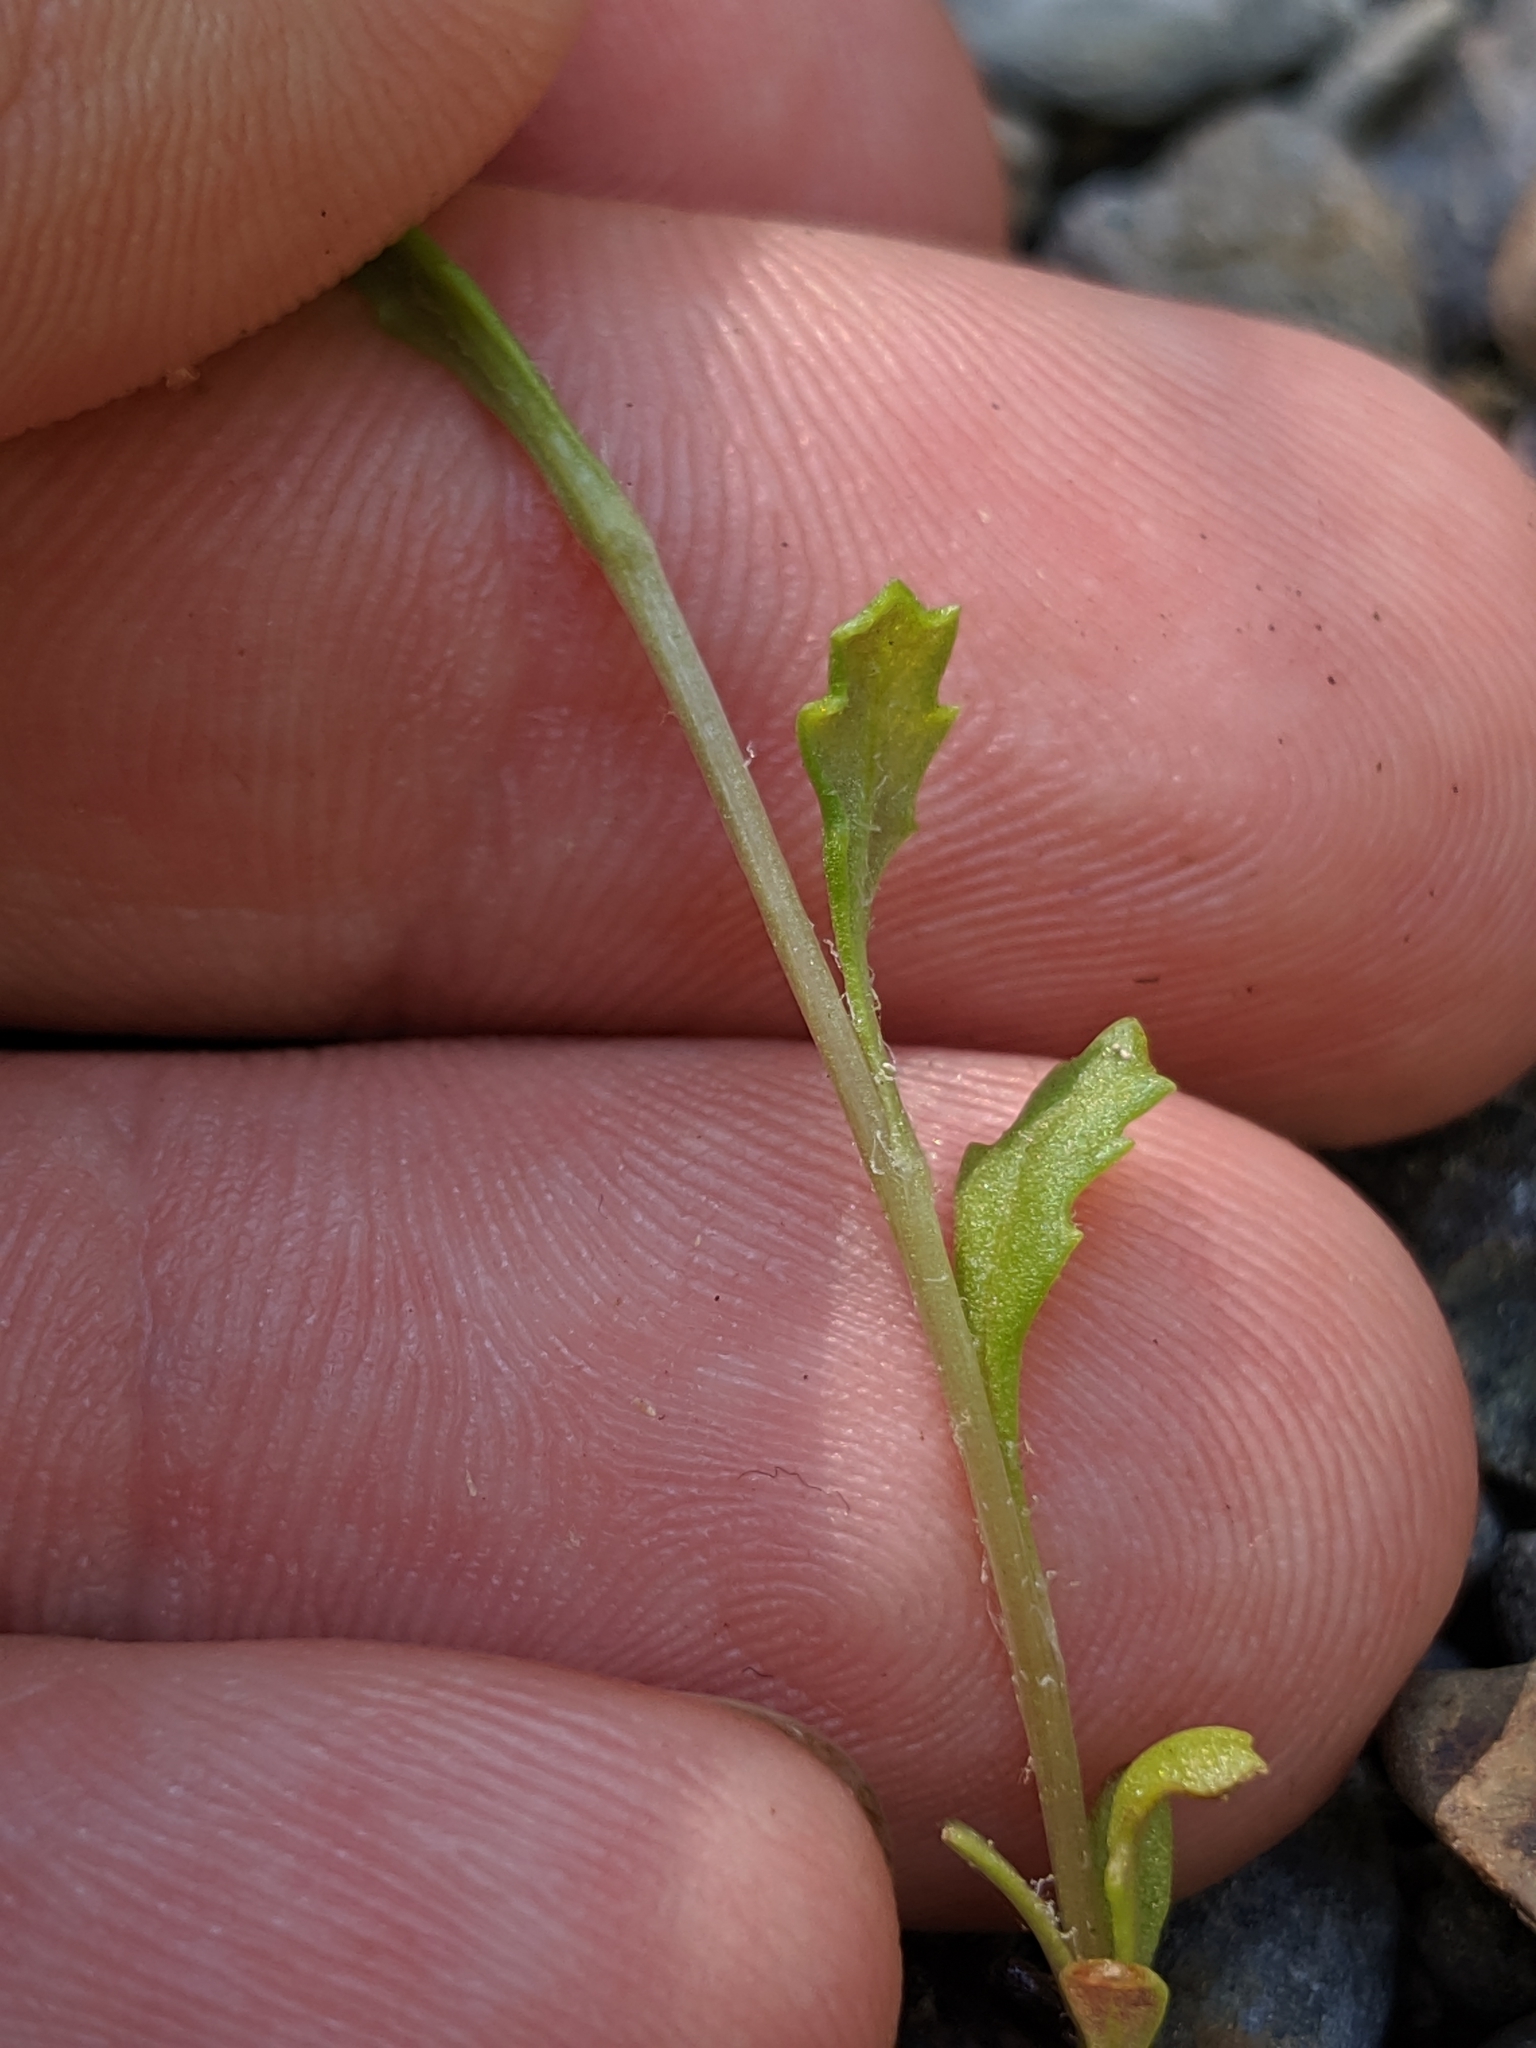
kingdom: Plantae
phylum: Tracheophyta
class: Magnoliopsida
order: Asterales
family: Asteraceae
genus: Senecio
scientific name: Senecio vulgaris
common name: Old-man-in-the-spring
